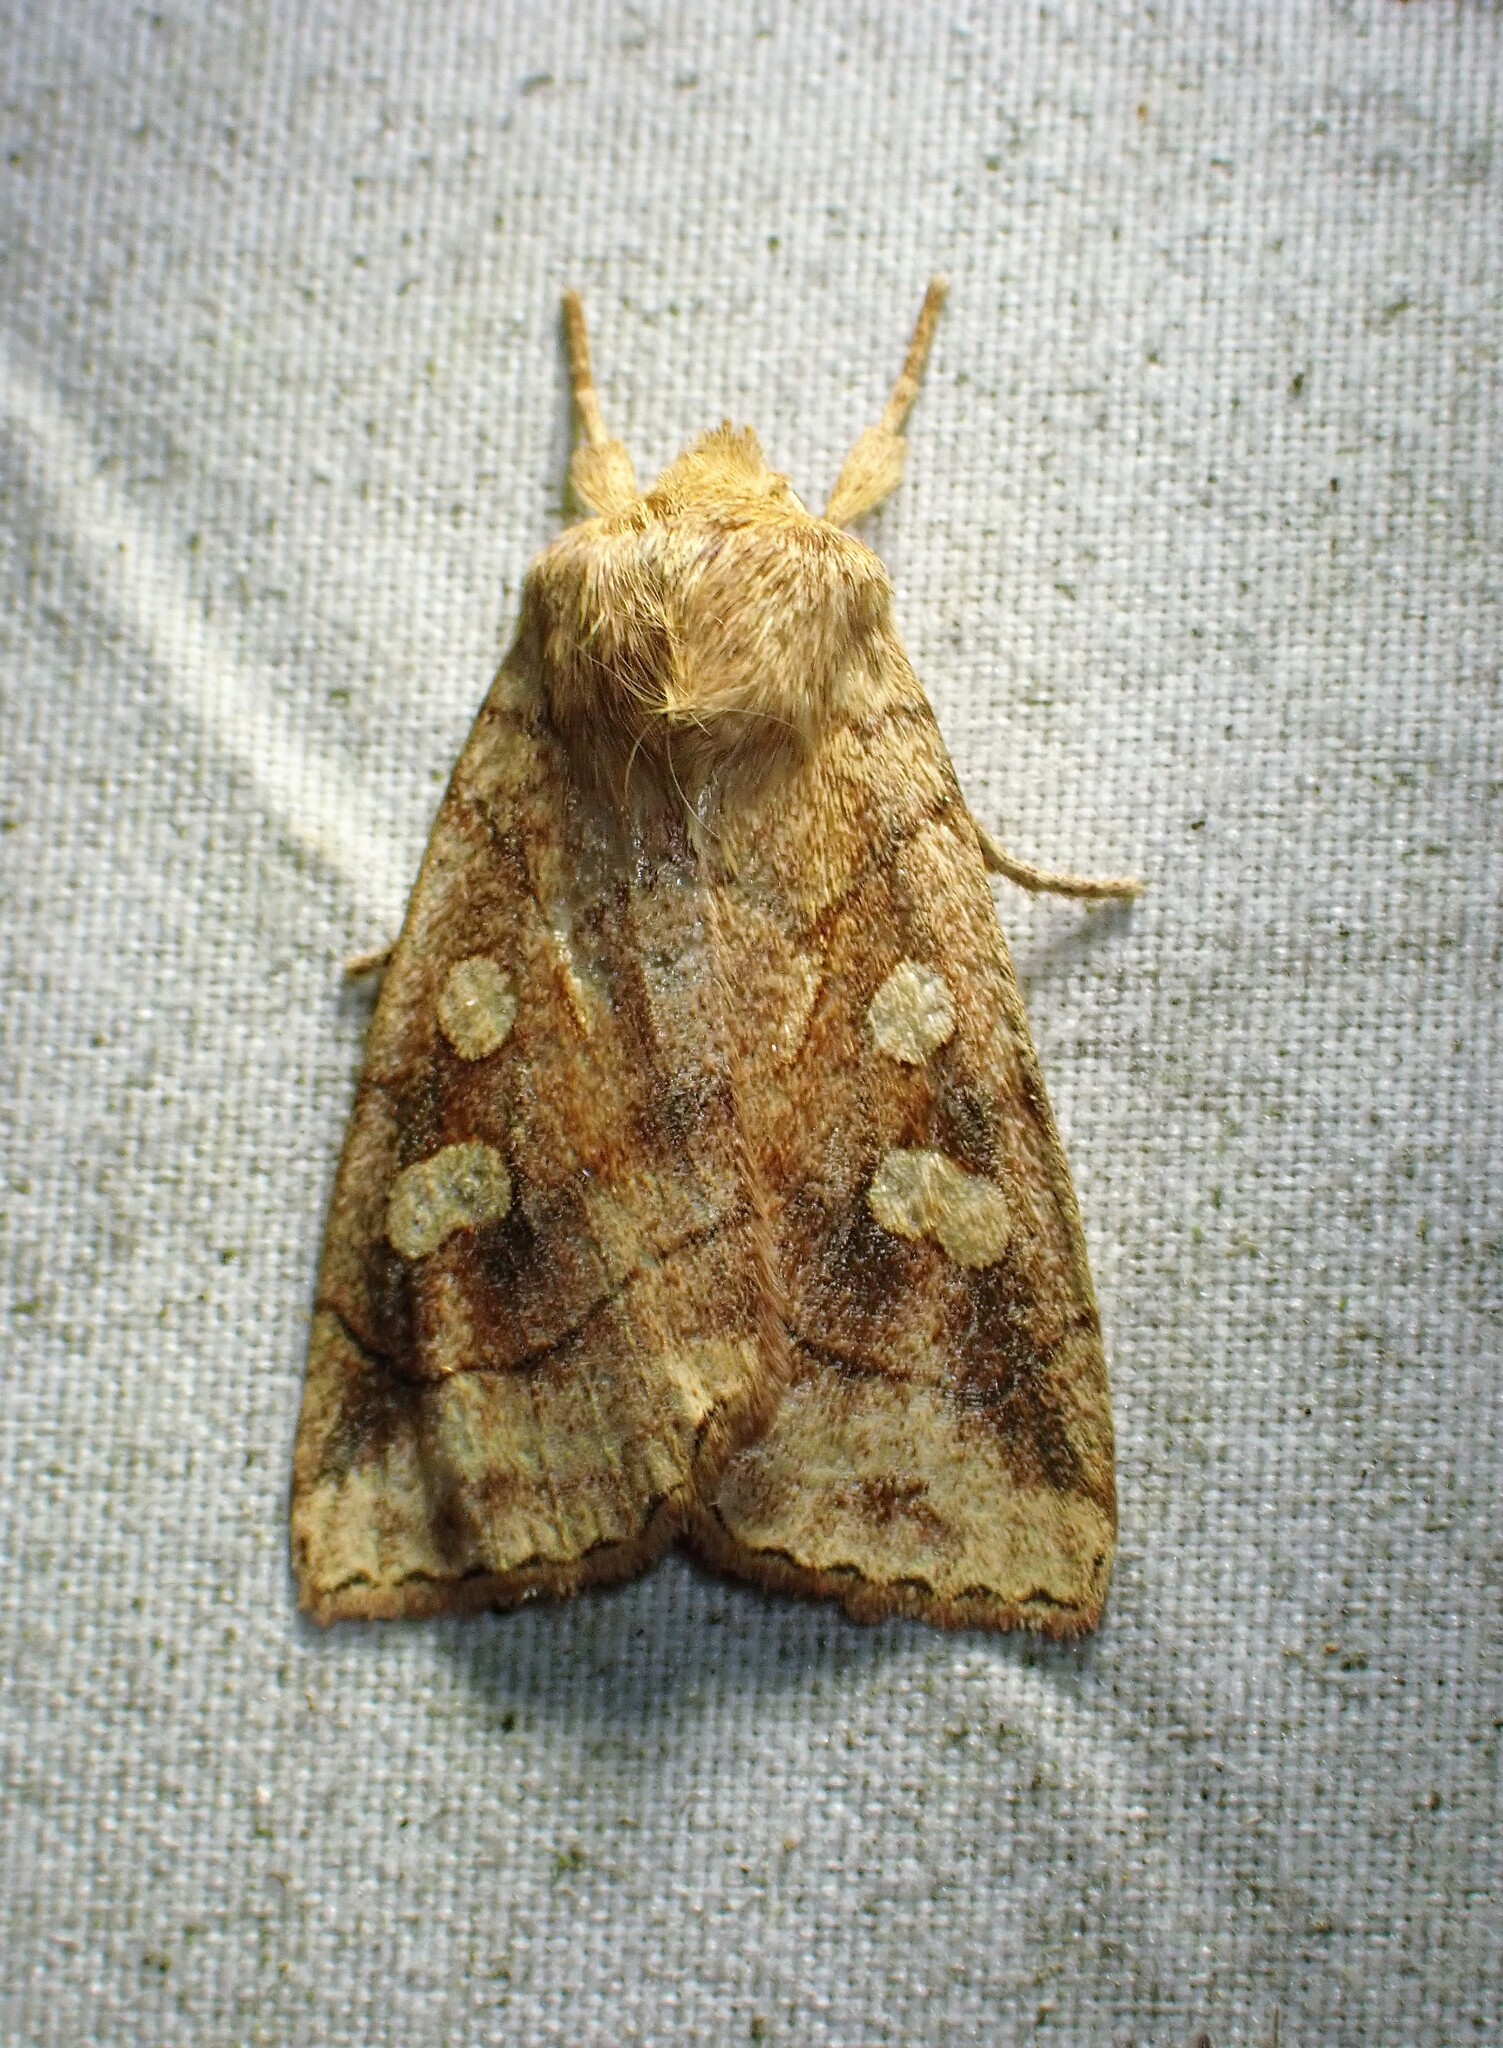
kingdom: Animalia
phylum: Arthropoda
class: Insecta
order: Lepidoptera
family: Noctuidae
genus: Enargia
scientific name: Enargia decolor
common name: Aspen twoleaf tier moth
